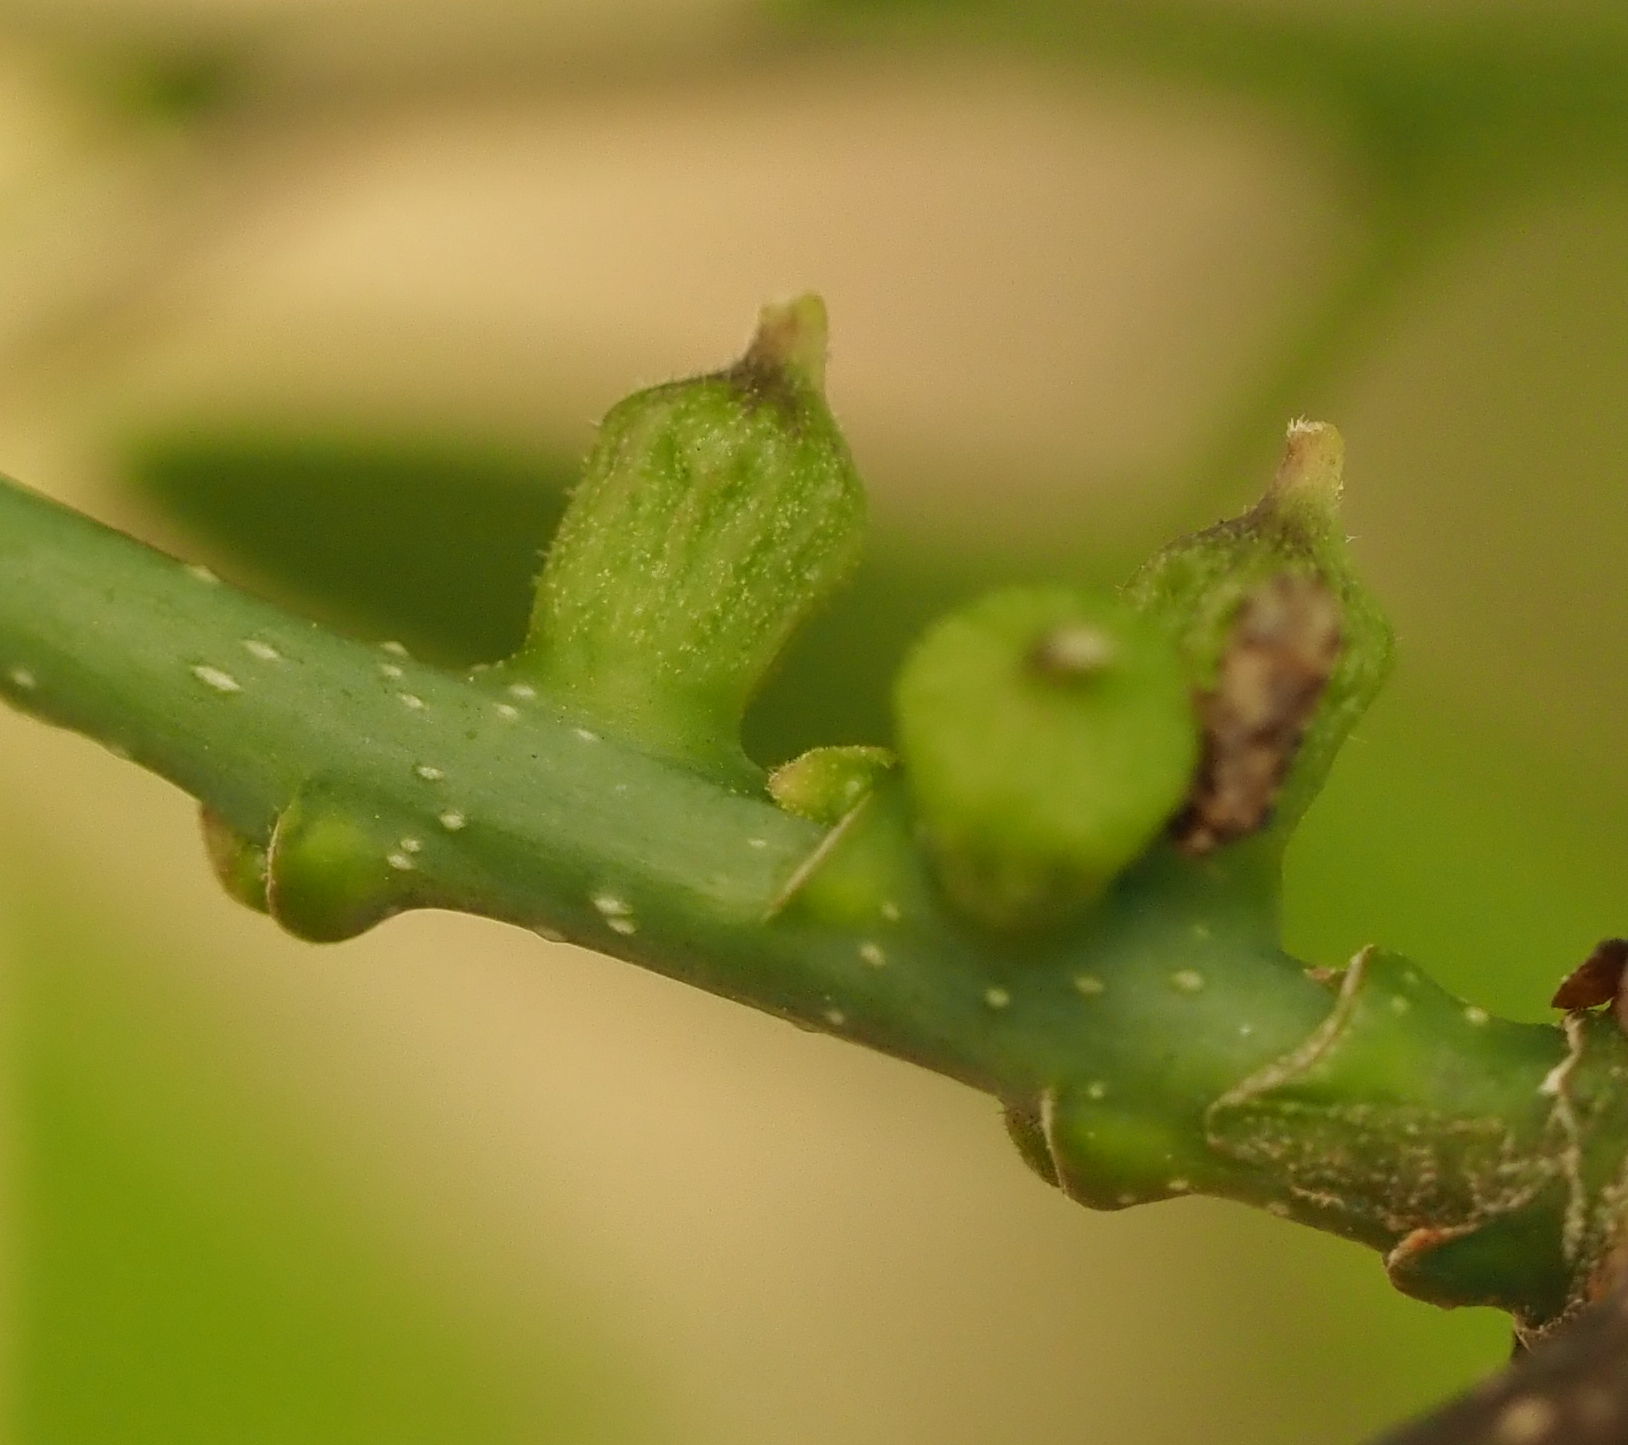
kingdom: Animalia
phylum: Arthropoda
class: Insecta
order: Diptera
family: Cecidomyiidae
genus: Celticecis
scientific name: Celticecis ramicola
